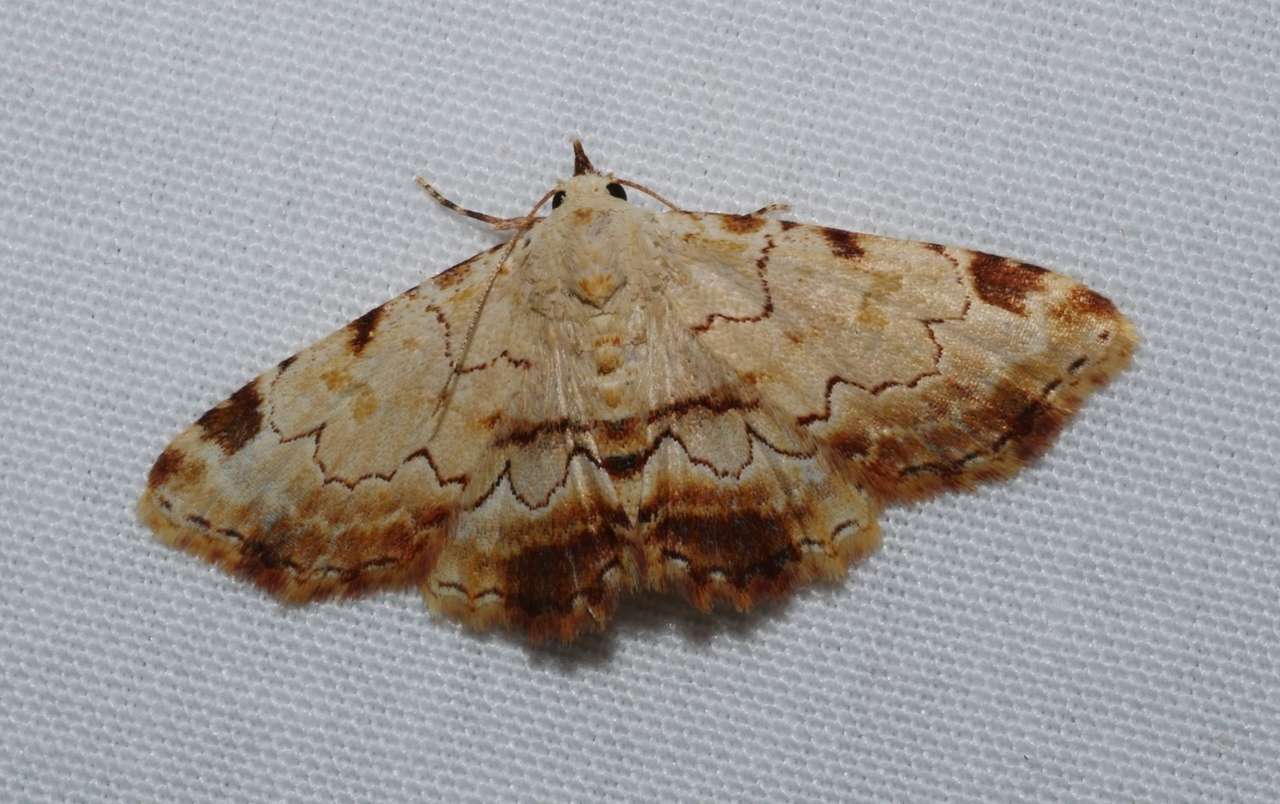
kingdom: Animalia
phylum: Arthropoda
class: Insecta
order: Lepidoptera
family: Erebidae
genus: Sandava
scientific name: Sandava xylistis
